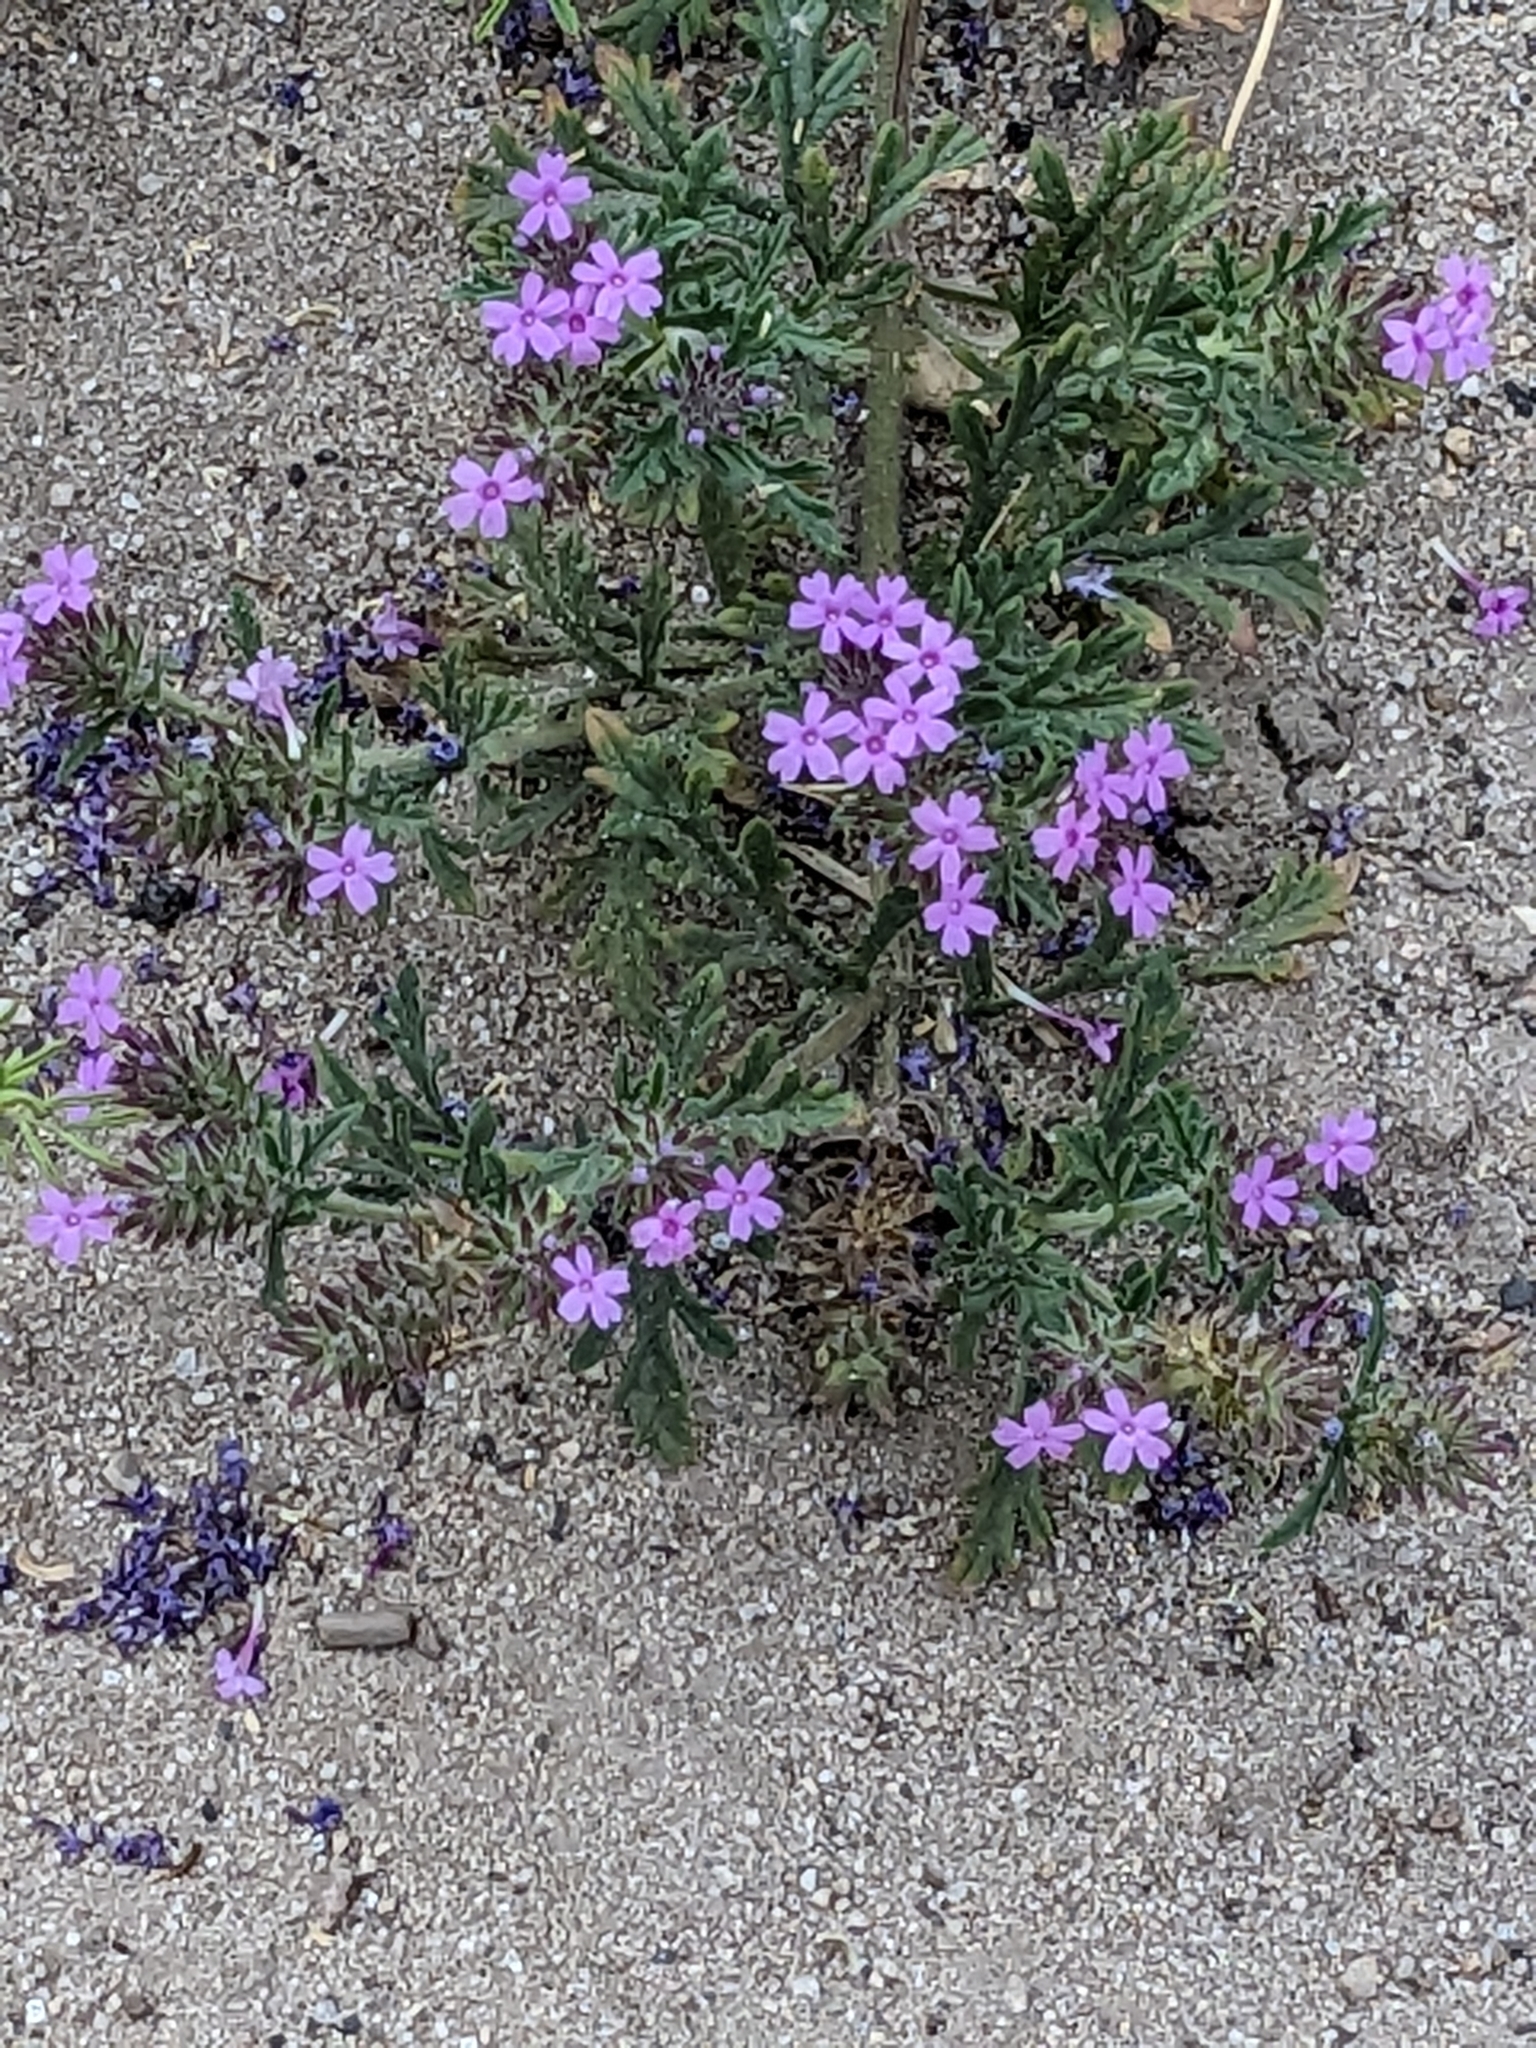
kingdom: Plantae
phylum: Tracheophyta
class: Magnoliopsida
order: Lamiales
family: Verbenaceae
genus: Verbena
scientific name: Verbena gooddingii
